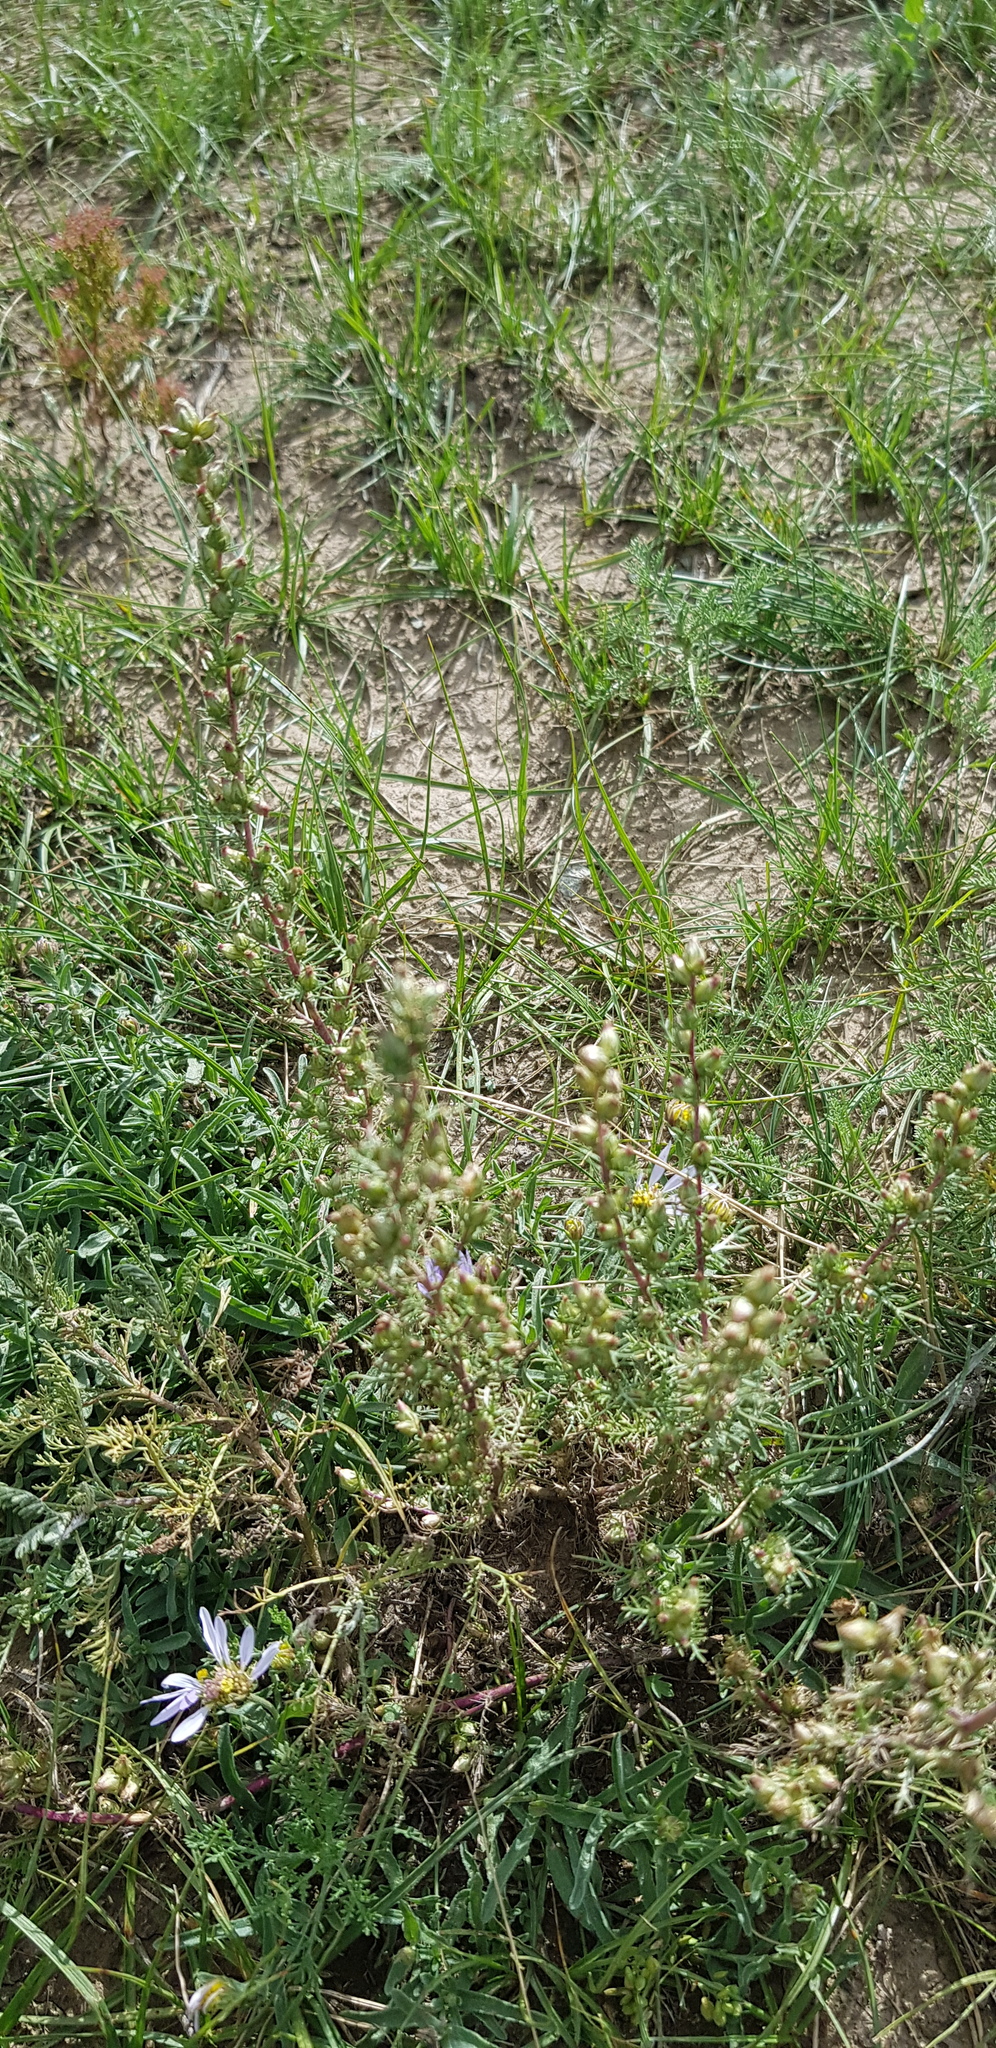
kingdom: Plantae
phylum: Tracheophyta
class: Magnoliopsida
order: Asterales
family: Asteraceae
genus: Neopallasia
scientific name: Neopallasia pectinata
